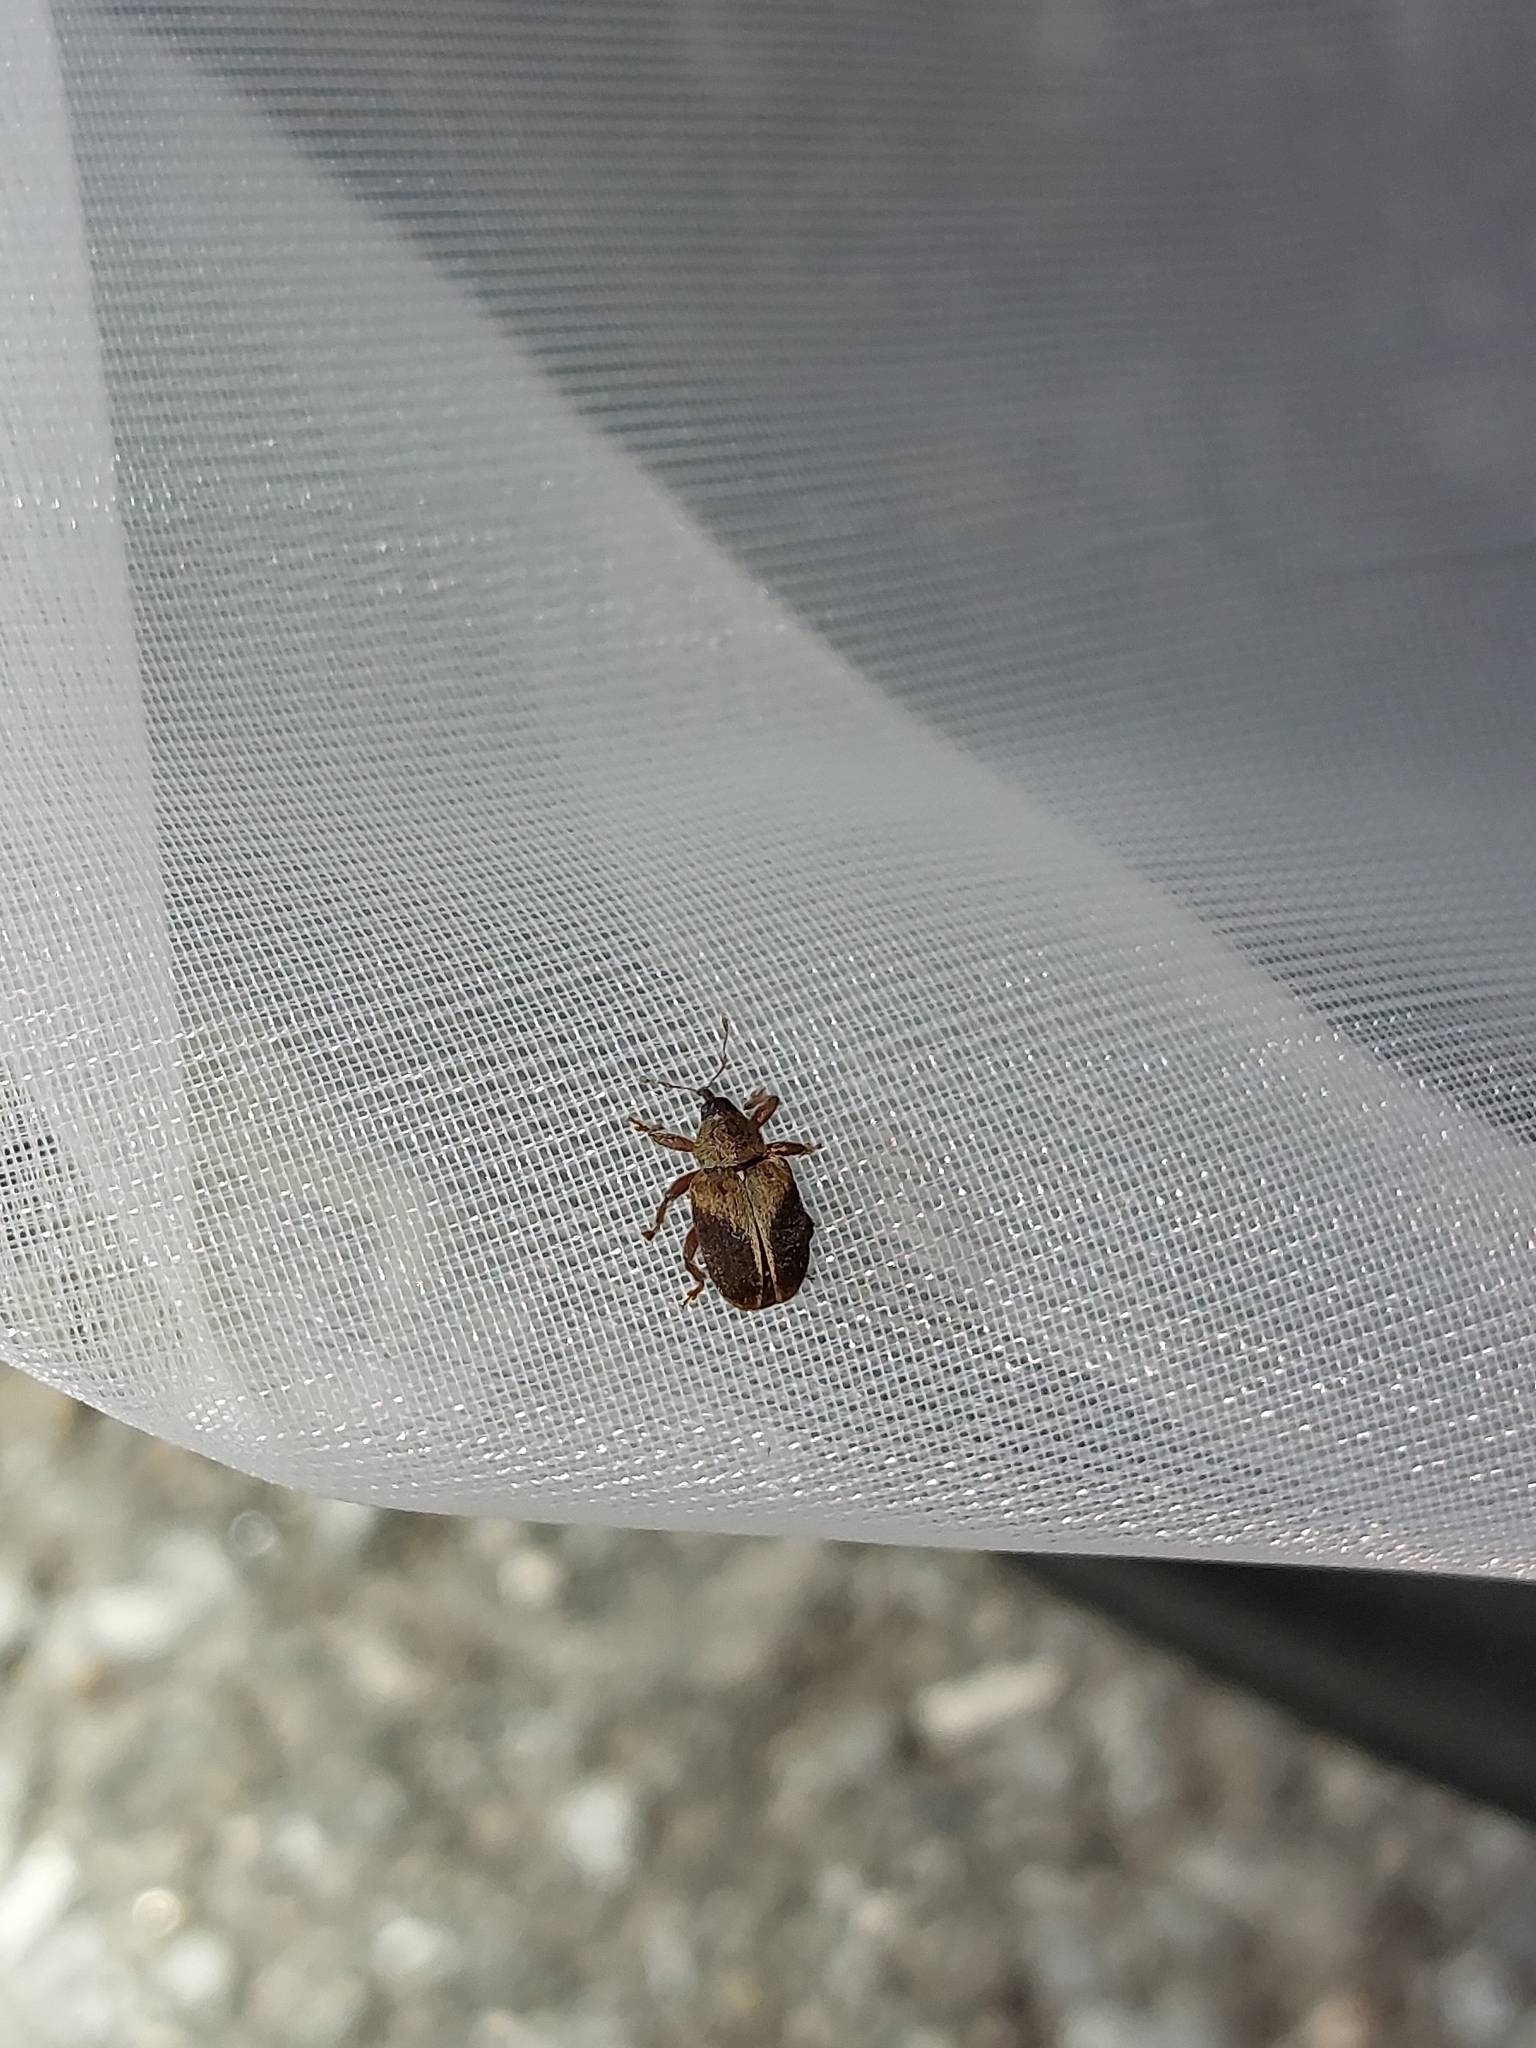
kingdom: Animalia
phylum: Arthropoda
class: Insecta
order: Coleoptera
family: Curculionidae
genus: Lignyodes
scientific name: Lignyodes enucleator
